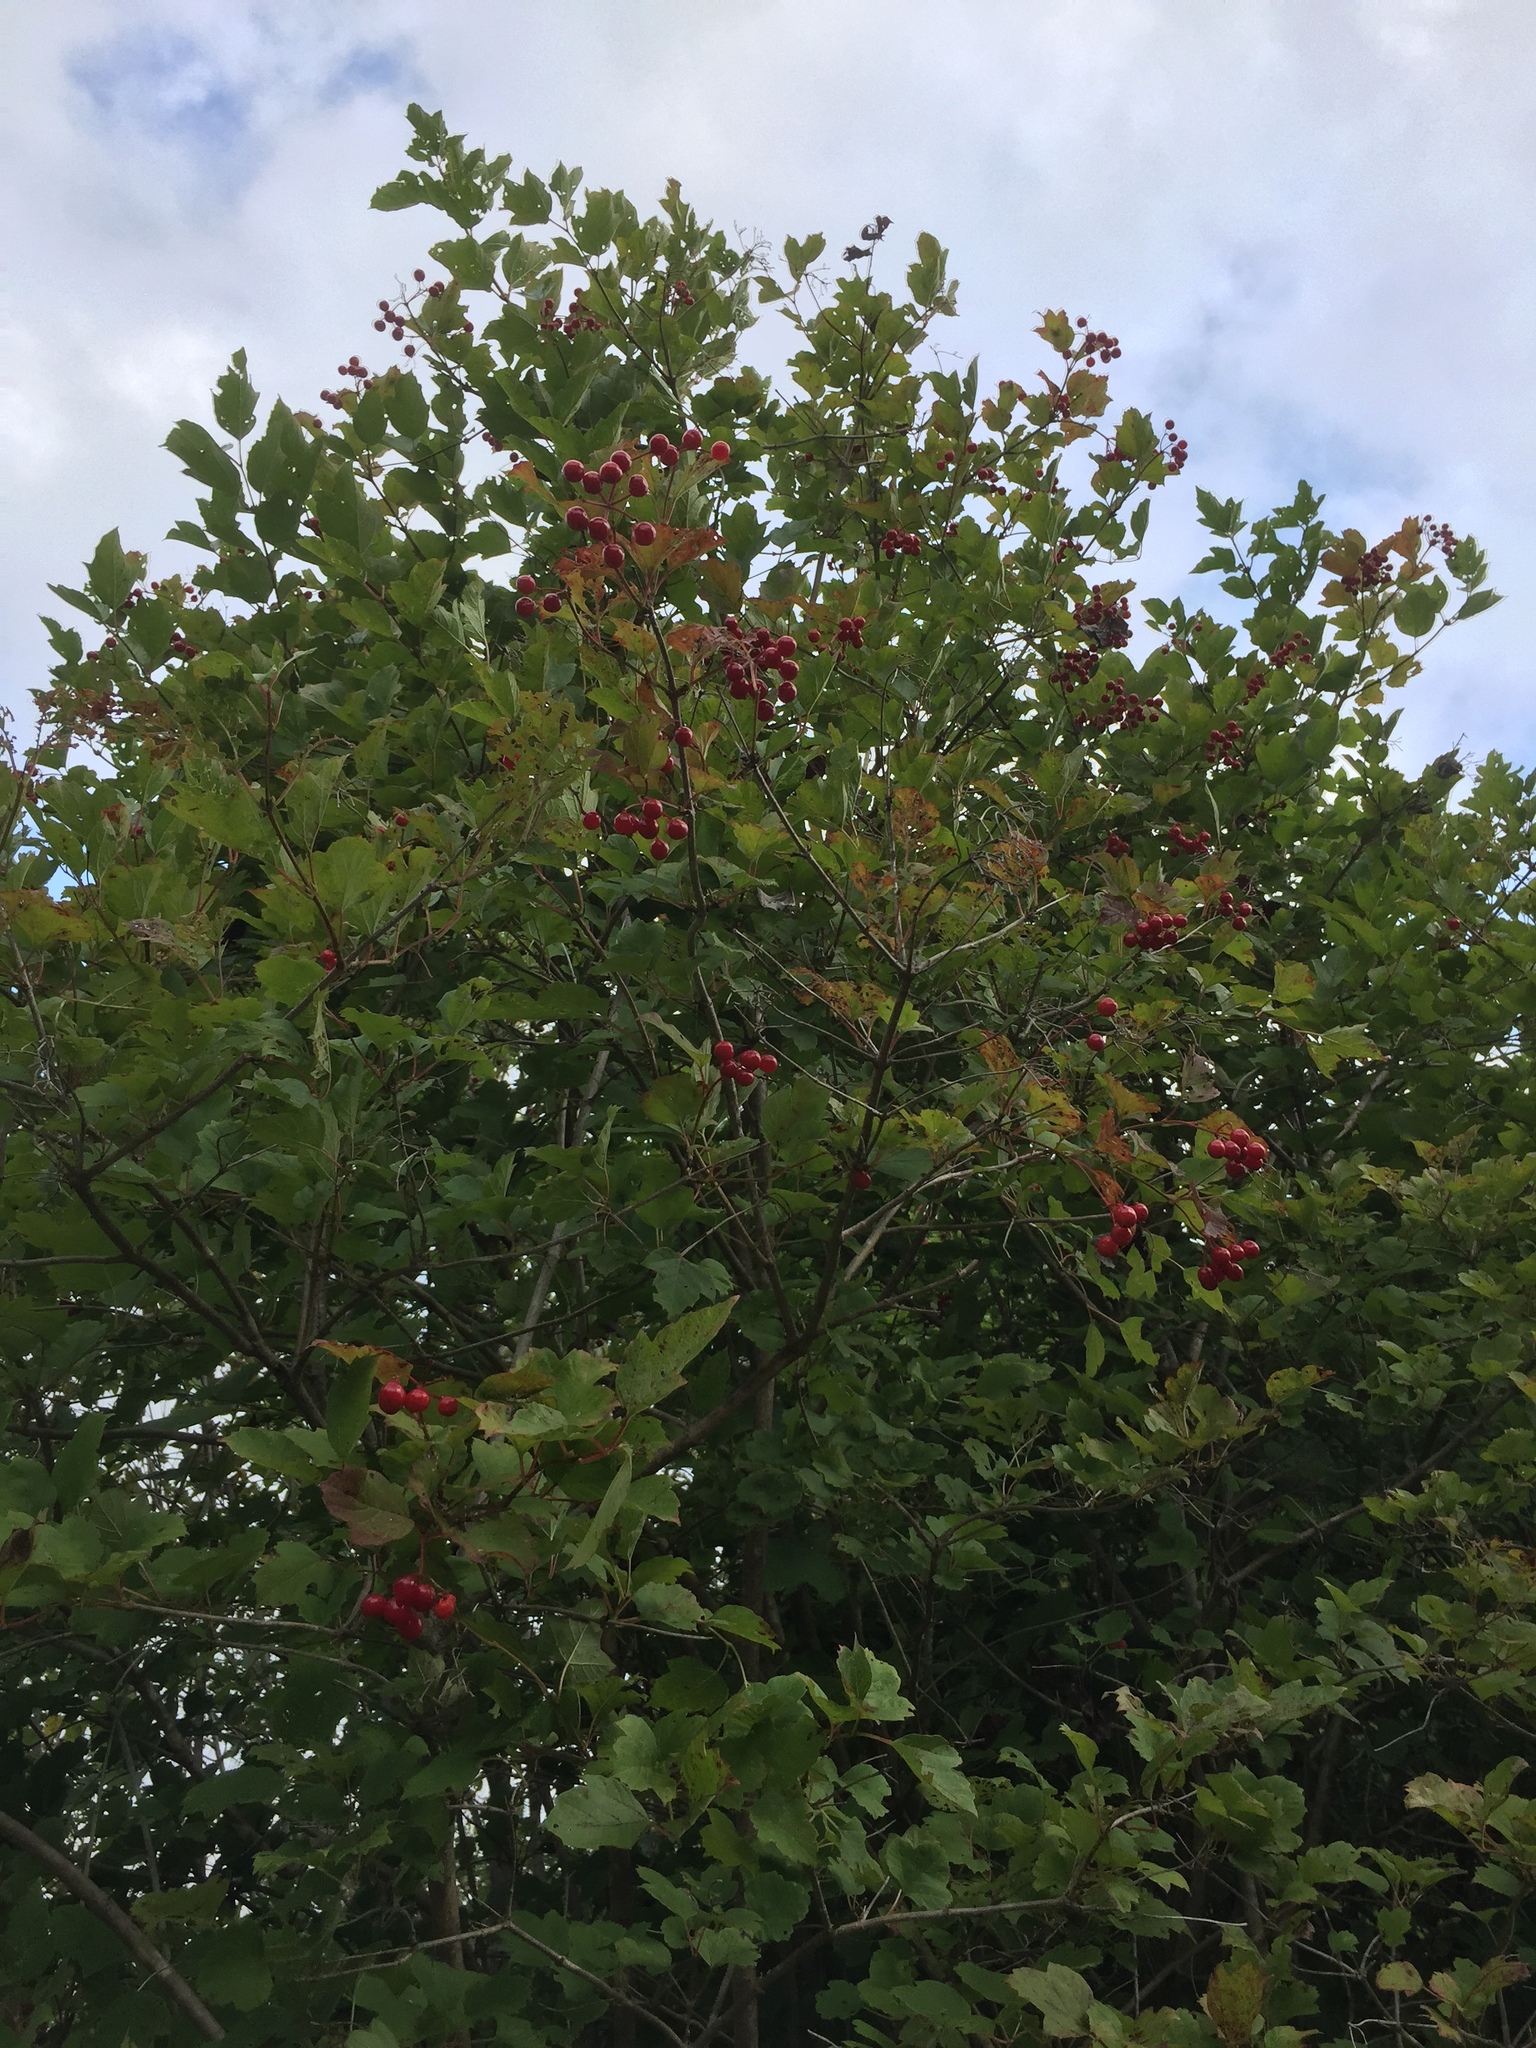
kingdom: Plantae
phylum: Tracheophyta
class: Magnoliopsida
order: Dipsacales
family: Viburnaceae
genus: Viburnum
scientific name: Viburnum opulus
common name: Guelder-rose
